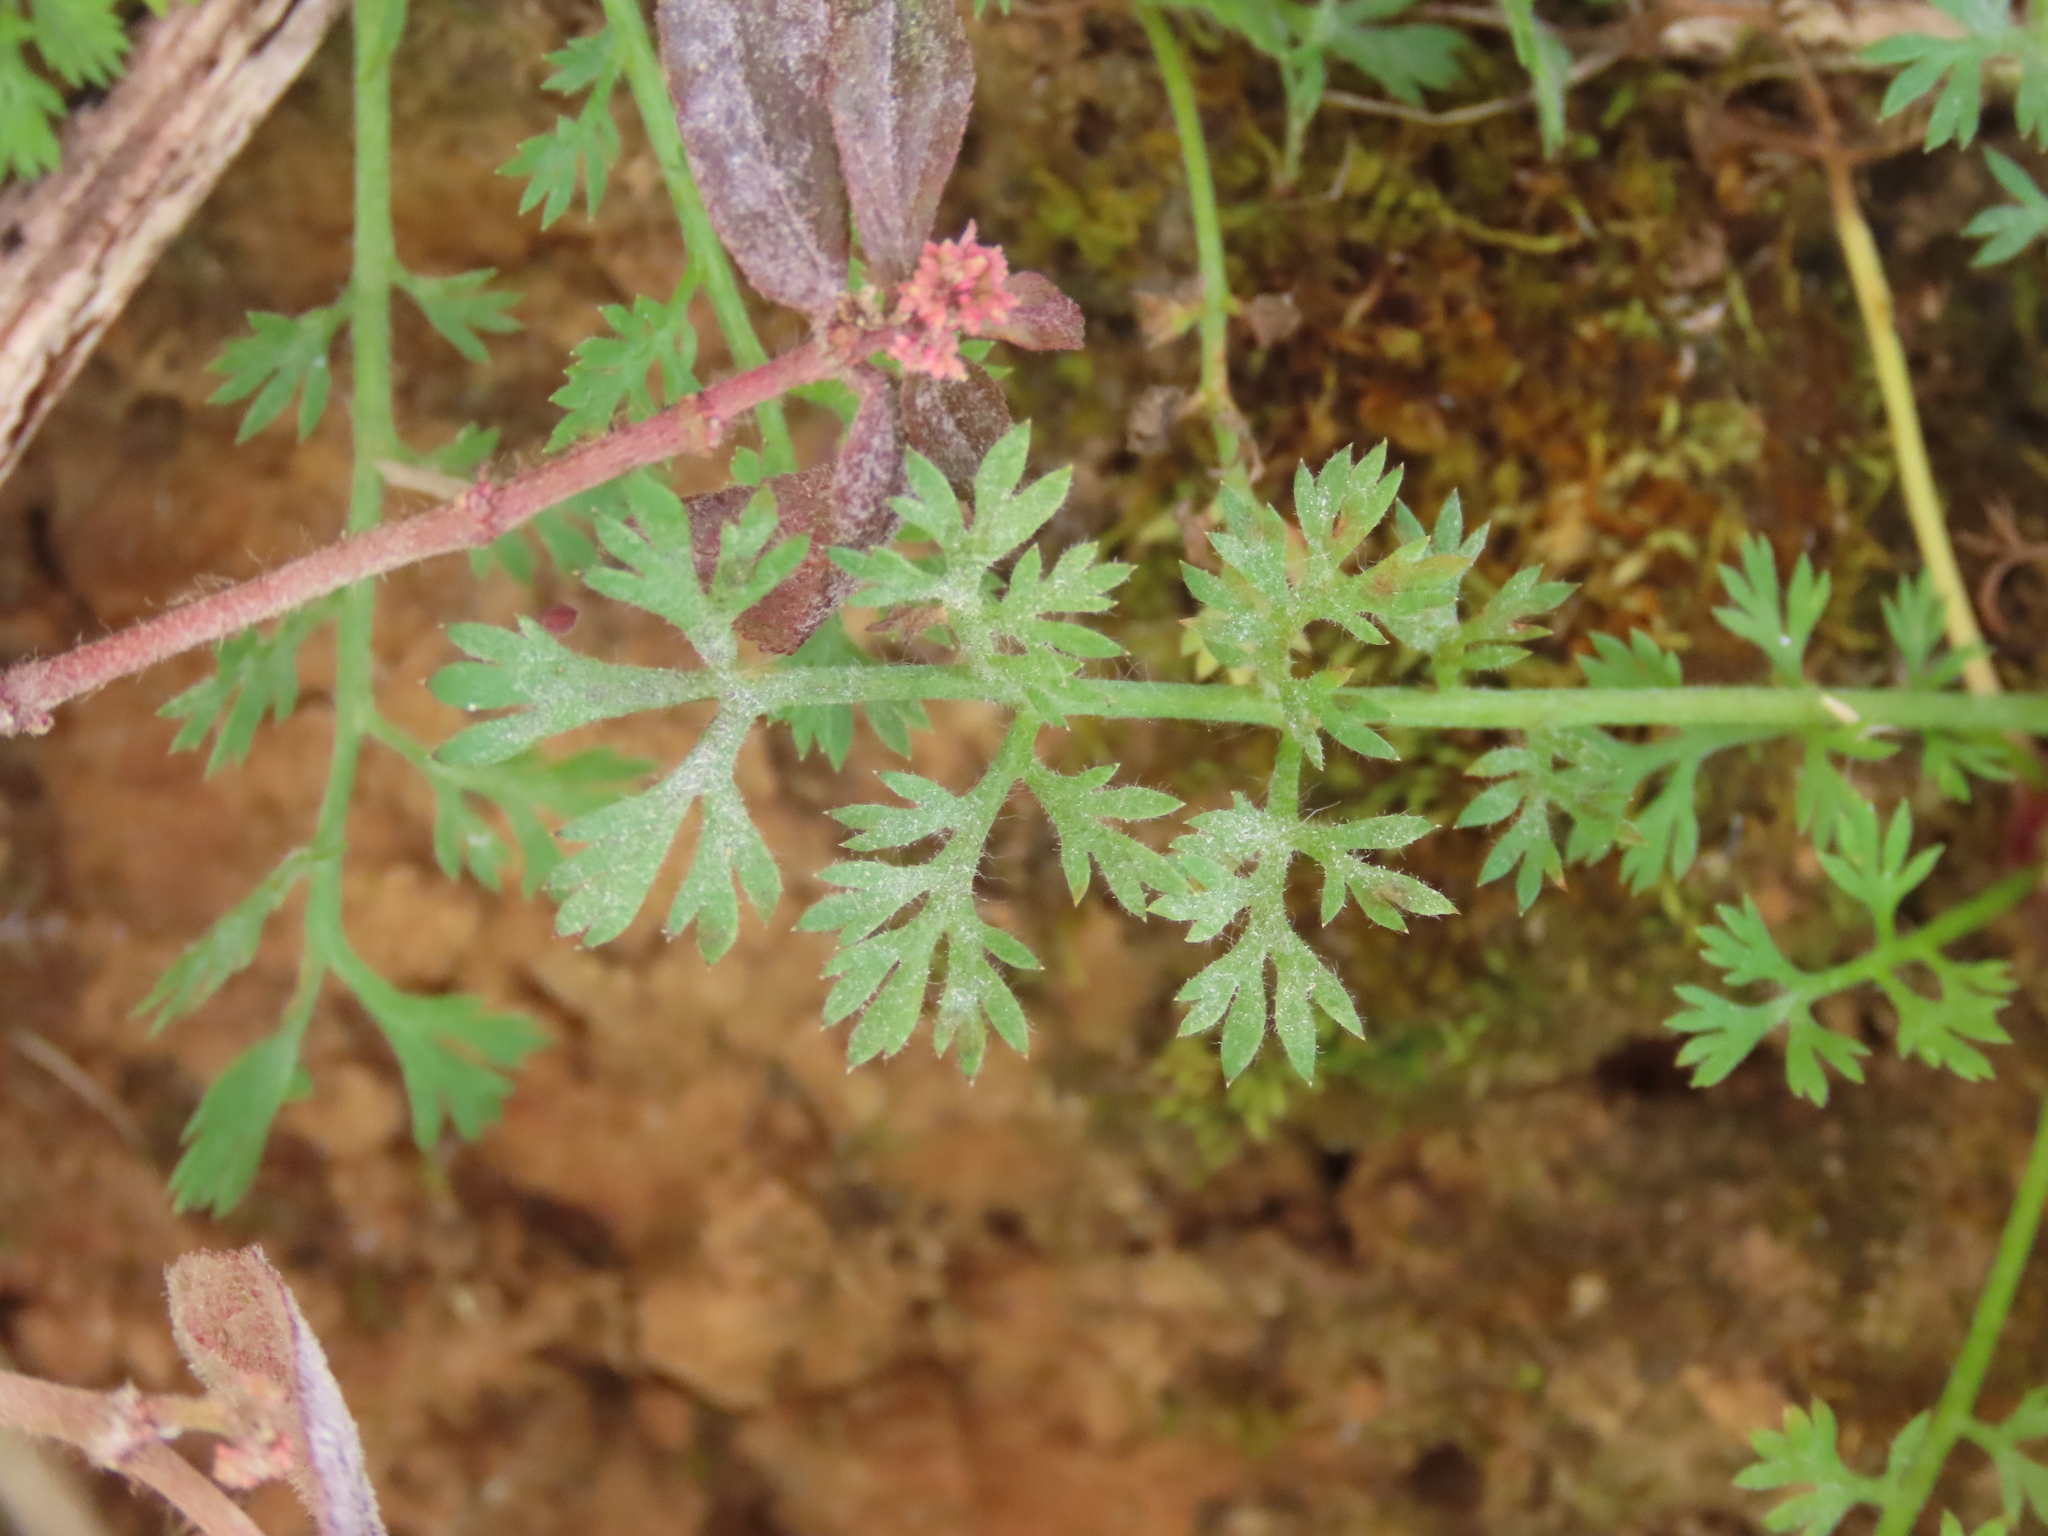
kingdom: Plantae
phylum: Tracheophyta
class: Magnoliopsida
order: Asterales
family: Asteraceae
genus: Soliva
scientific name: Soliva anthemifolia
